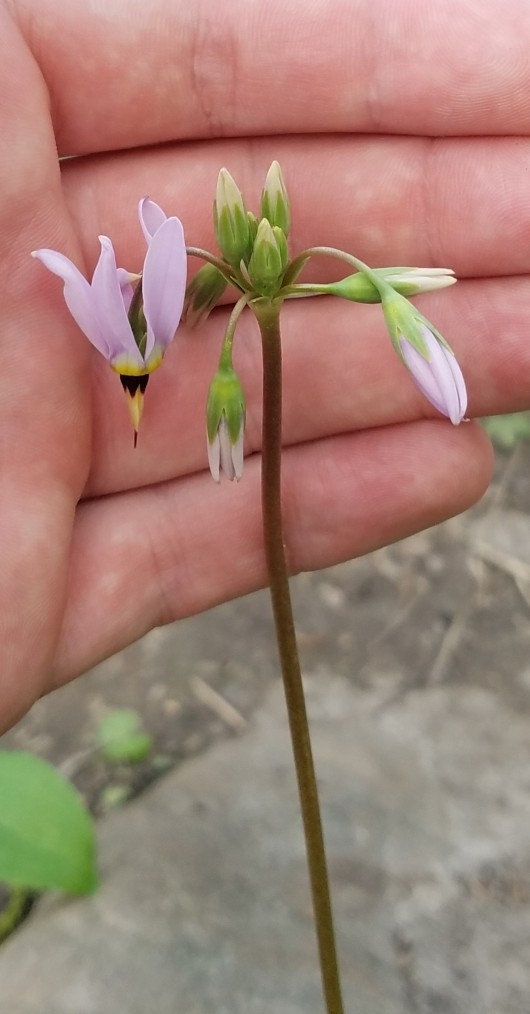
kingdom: Plantae
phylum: Tracheophyta
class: Magnoliopsida
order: Ericales
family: Primulaceae
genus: Dodecatheon
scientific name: Dodecatheon meadia
